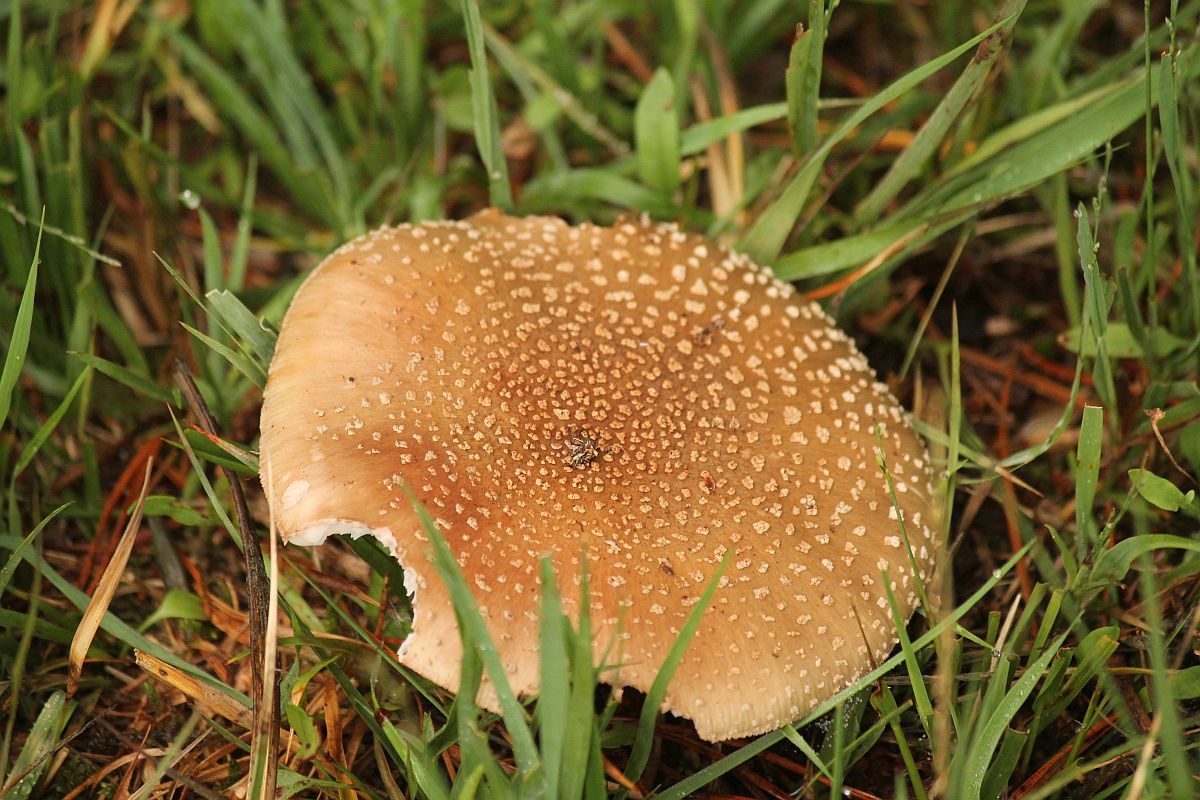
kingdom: Fungi
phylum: Basidiomycota
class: Agaricomycetes
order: Agaricales
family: Amanitaceae
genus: Amanita
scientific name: Amanita rubescens
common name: Blusher
